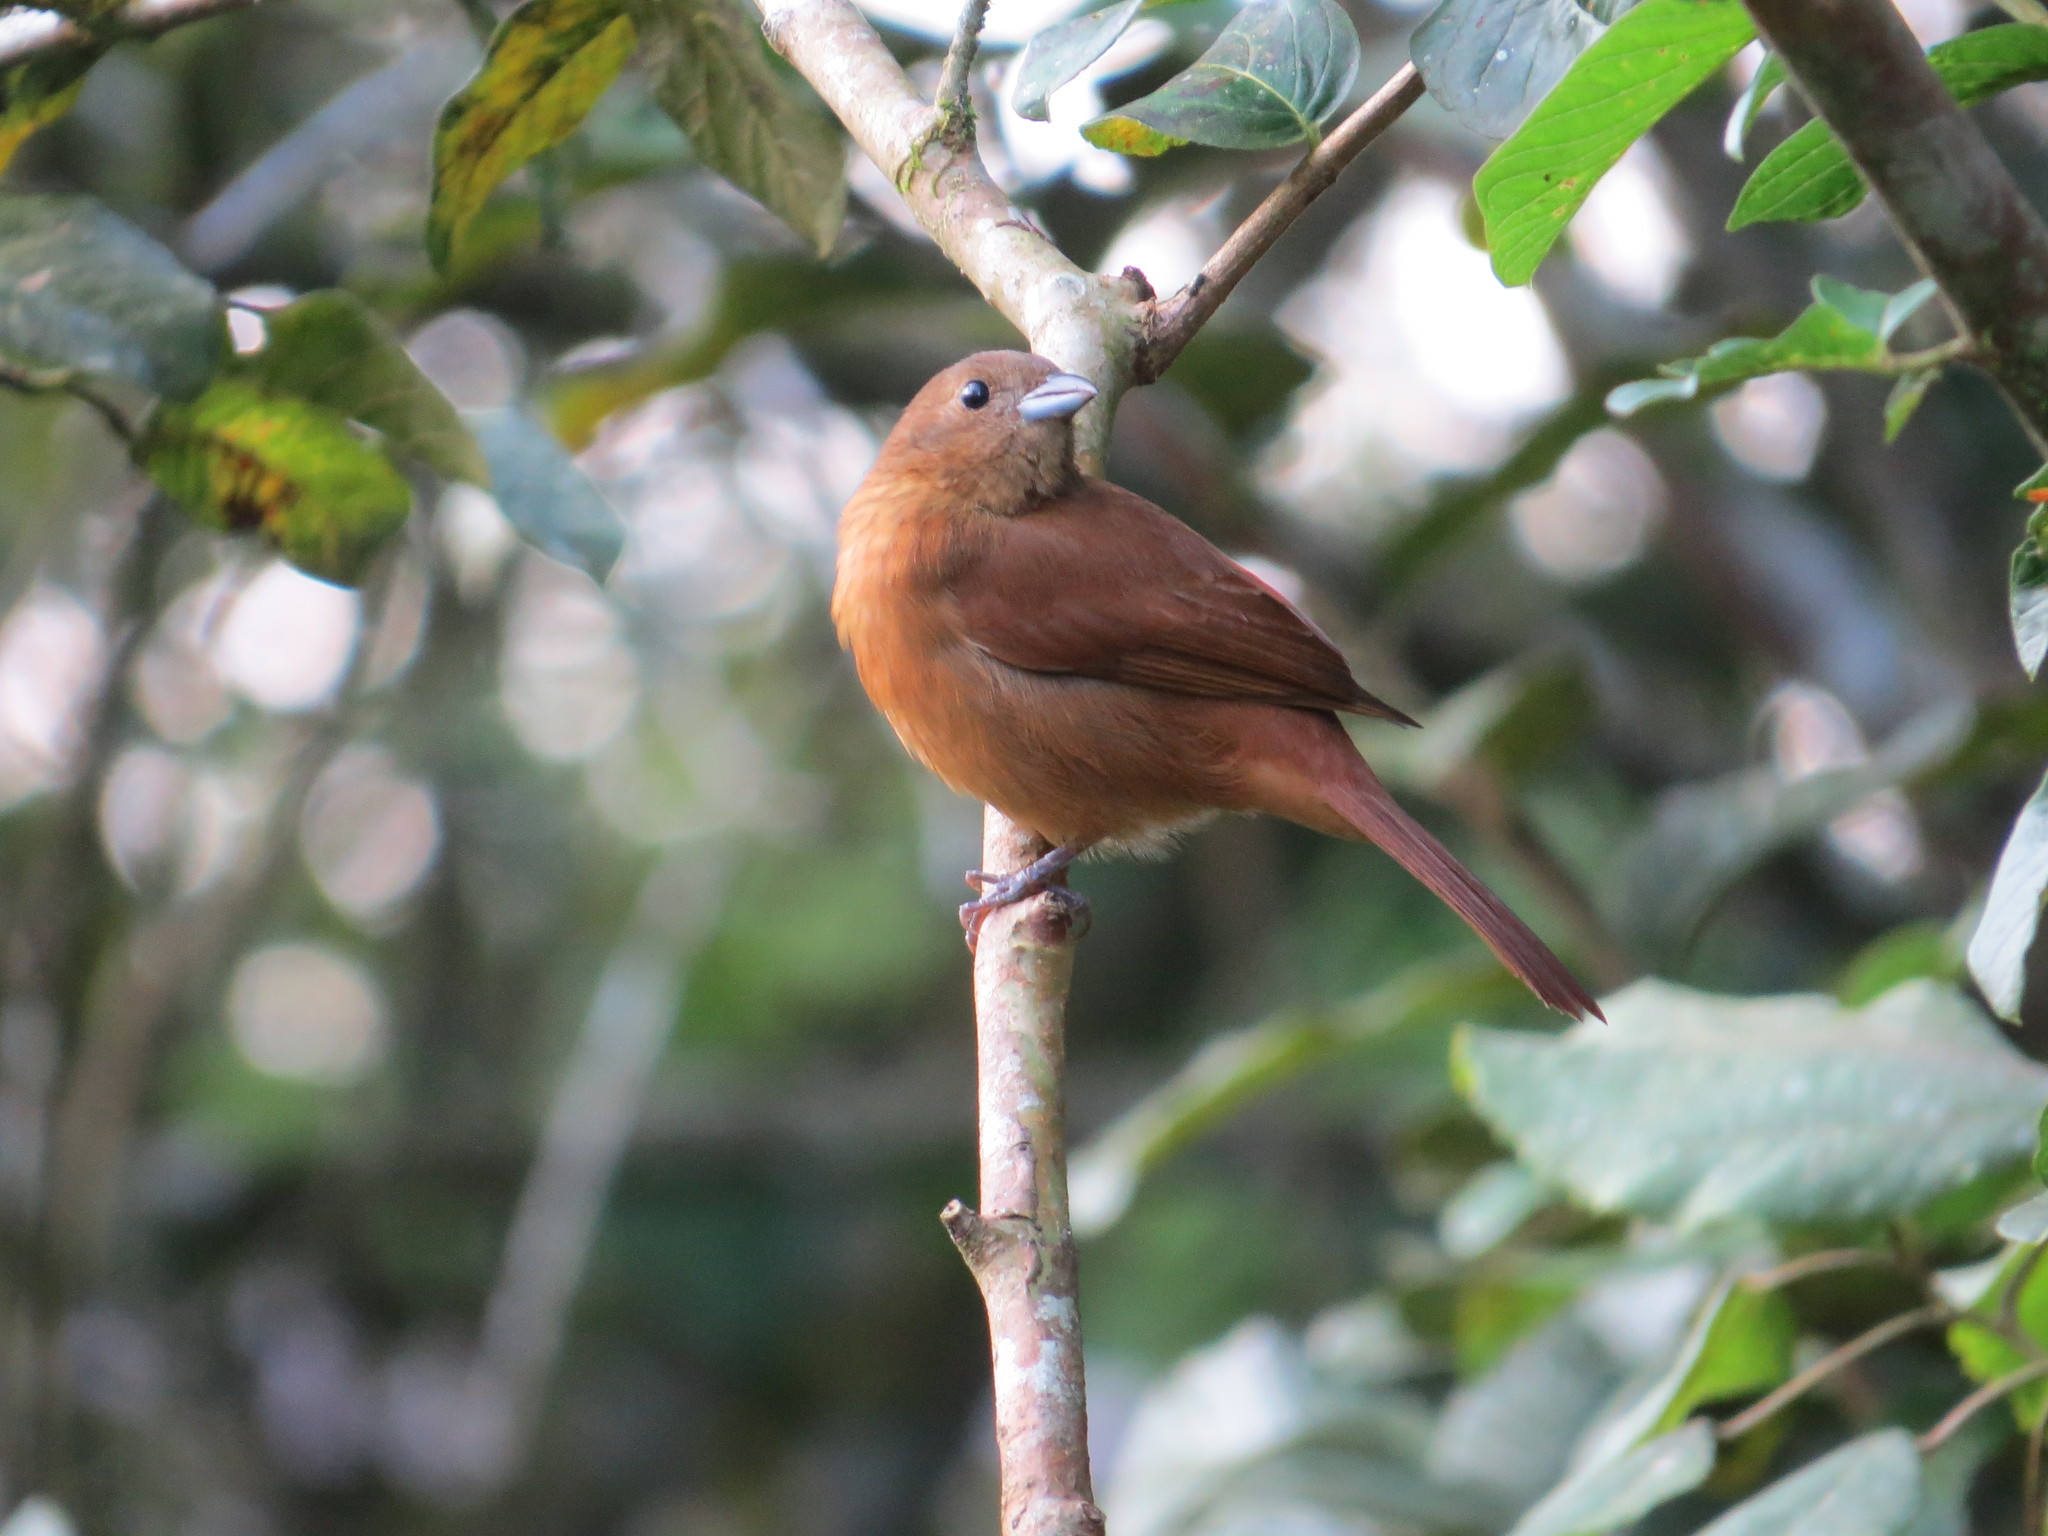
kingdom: Animalia
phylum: Chordata
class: Aves
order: Passeriformes
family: Thraupidae
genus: Tachyphonus
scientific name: Tachyphonus coronatus
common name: Ruby-crowned tanager
